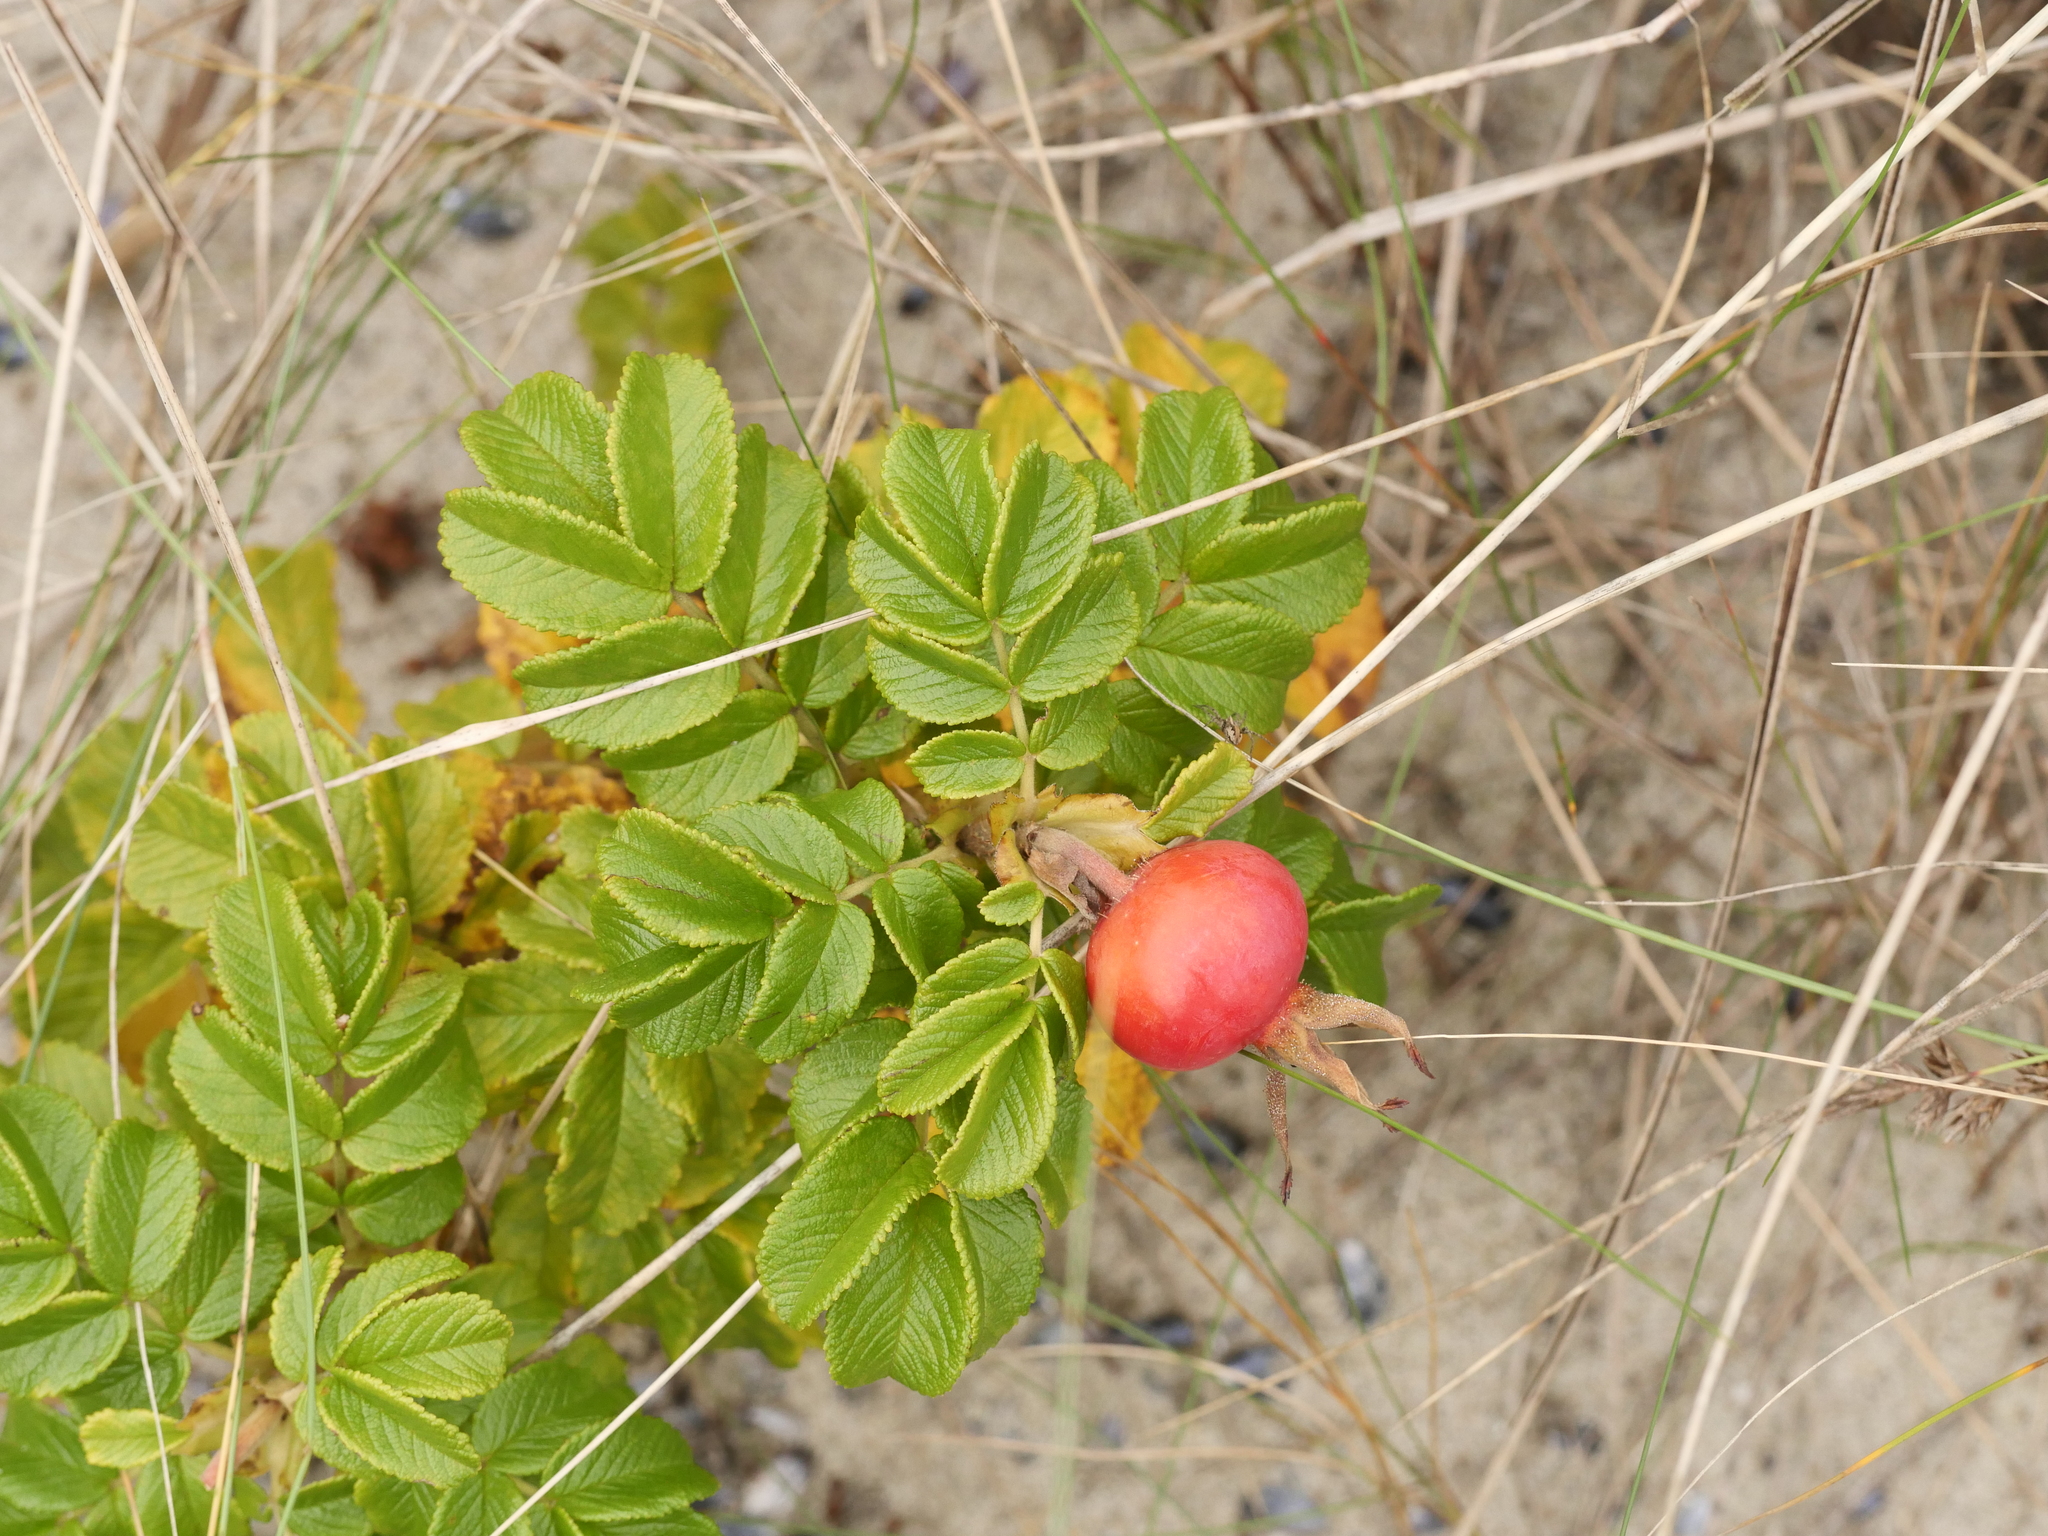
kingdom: Plantae
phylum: Tracheophyta
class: Magnoliopsida
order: Rosales
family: Rosaceae
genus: Rosa
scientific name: Rosa rugosa
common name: Japanese rose
